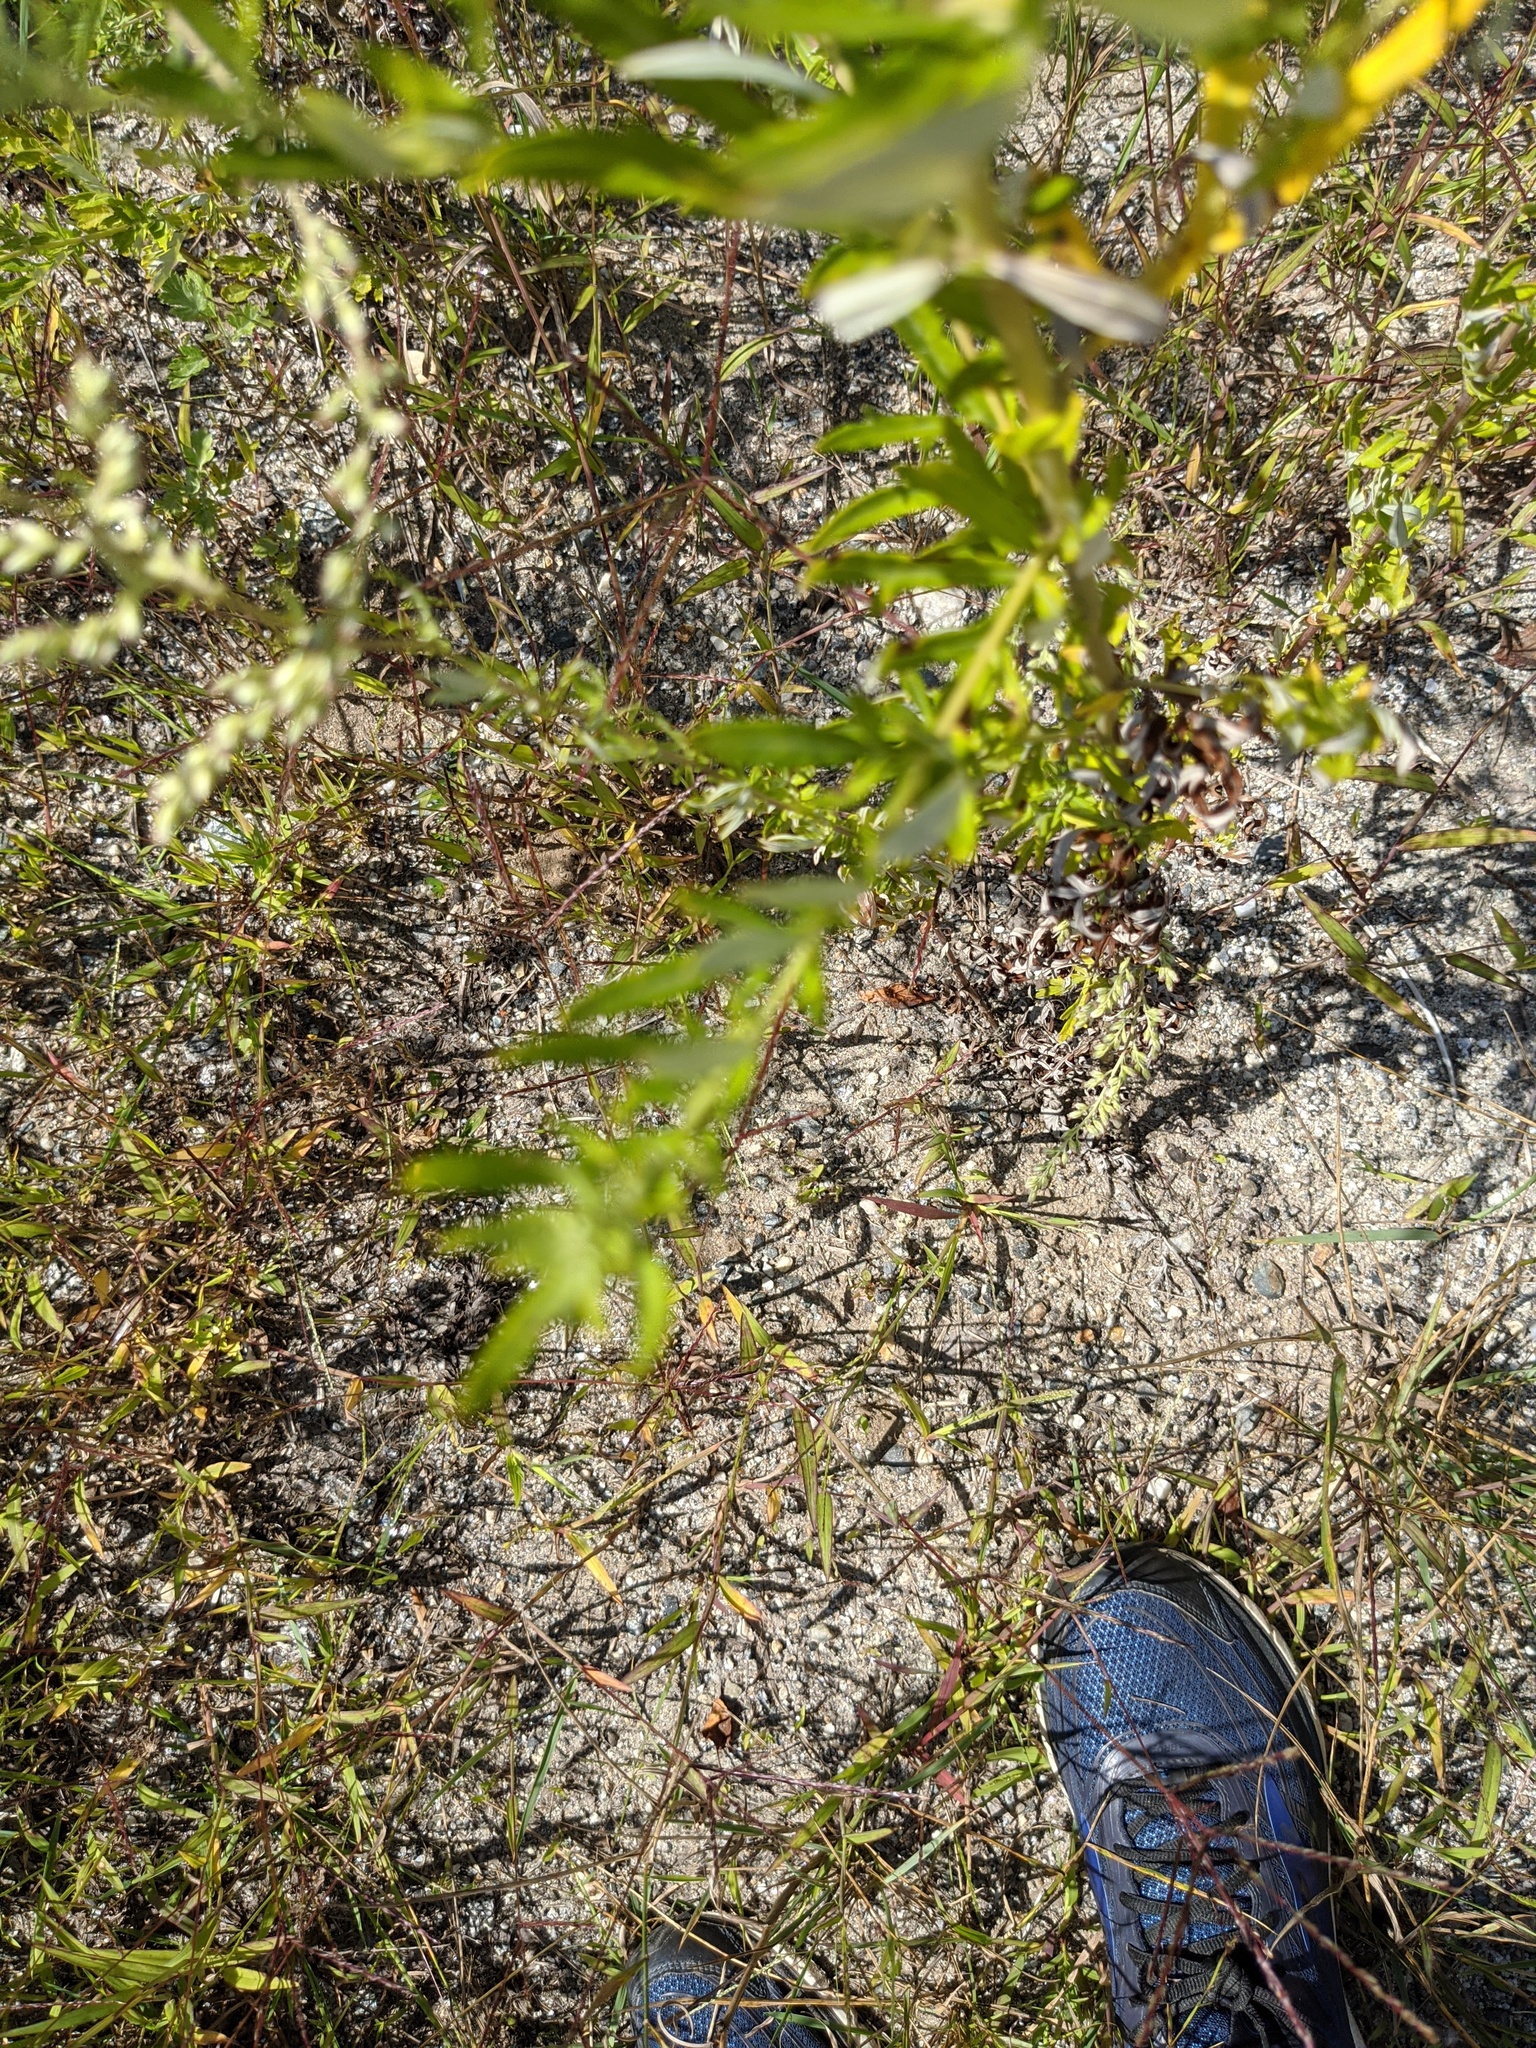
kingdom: Plantae
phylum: Tracheophyta
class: Magnoliopsida
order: Asterales
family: Asteraceae
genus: Artemisia
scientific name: Artemisia vulgaris
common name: Mugwort
